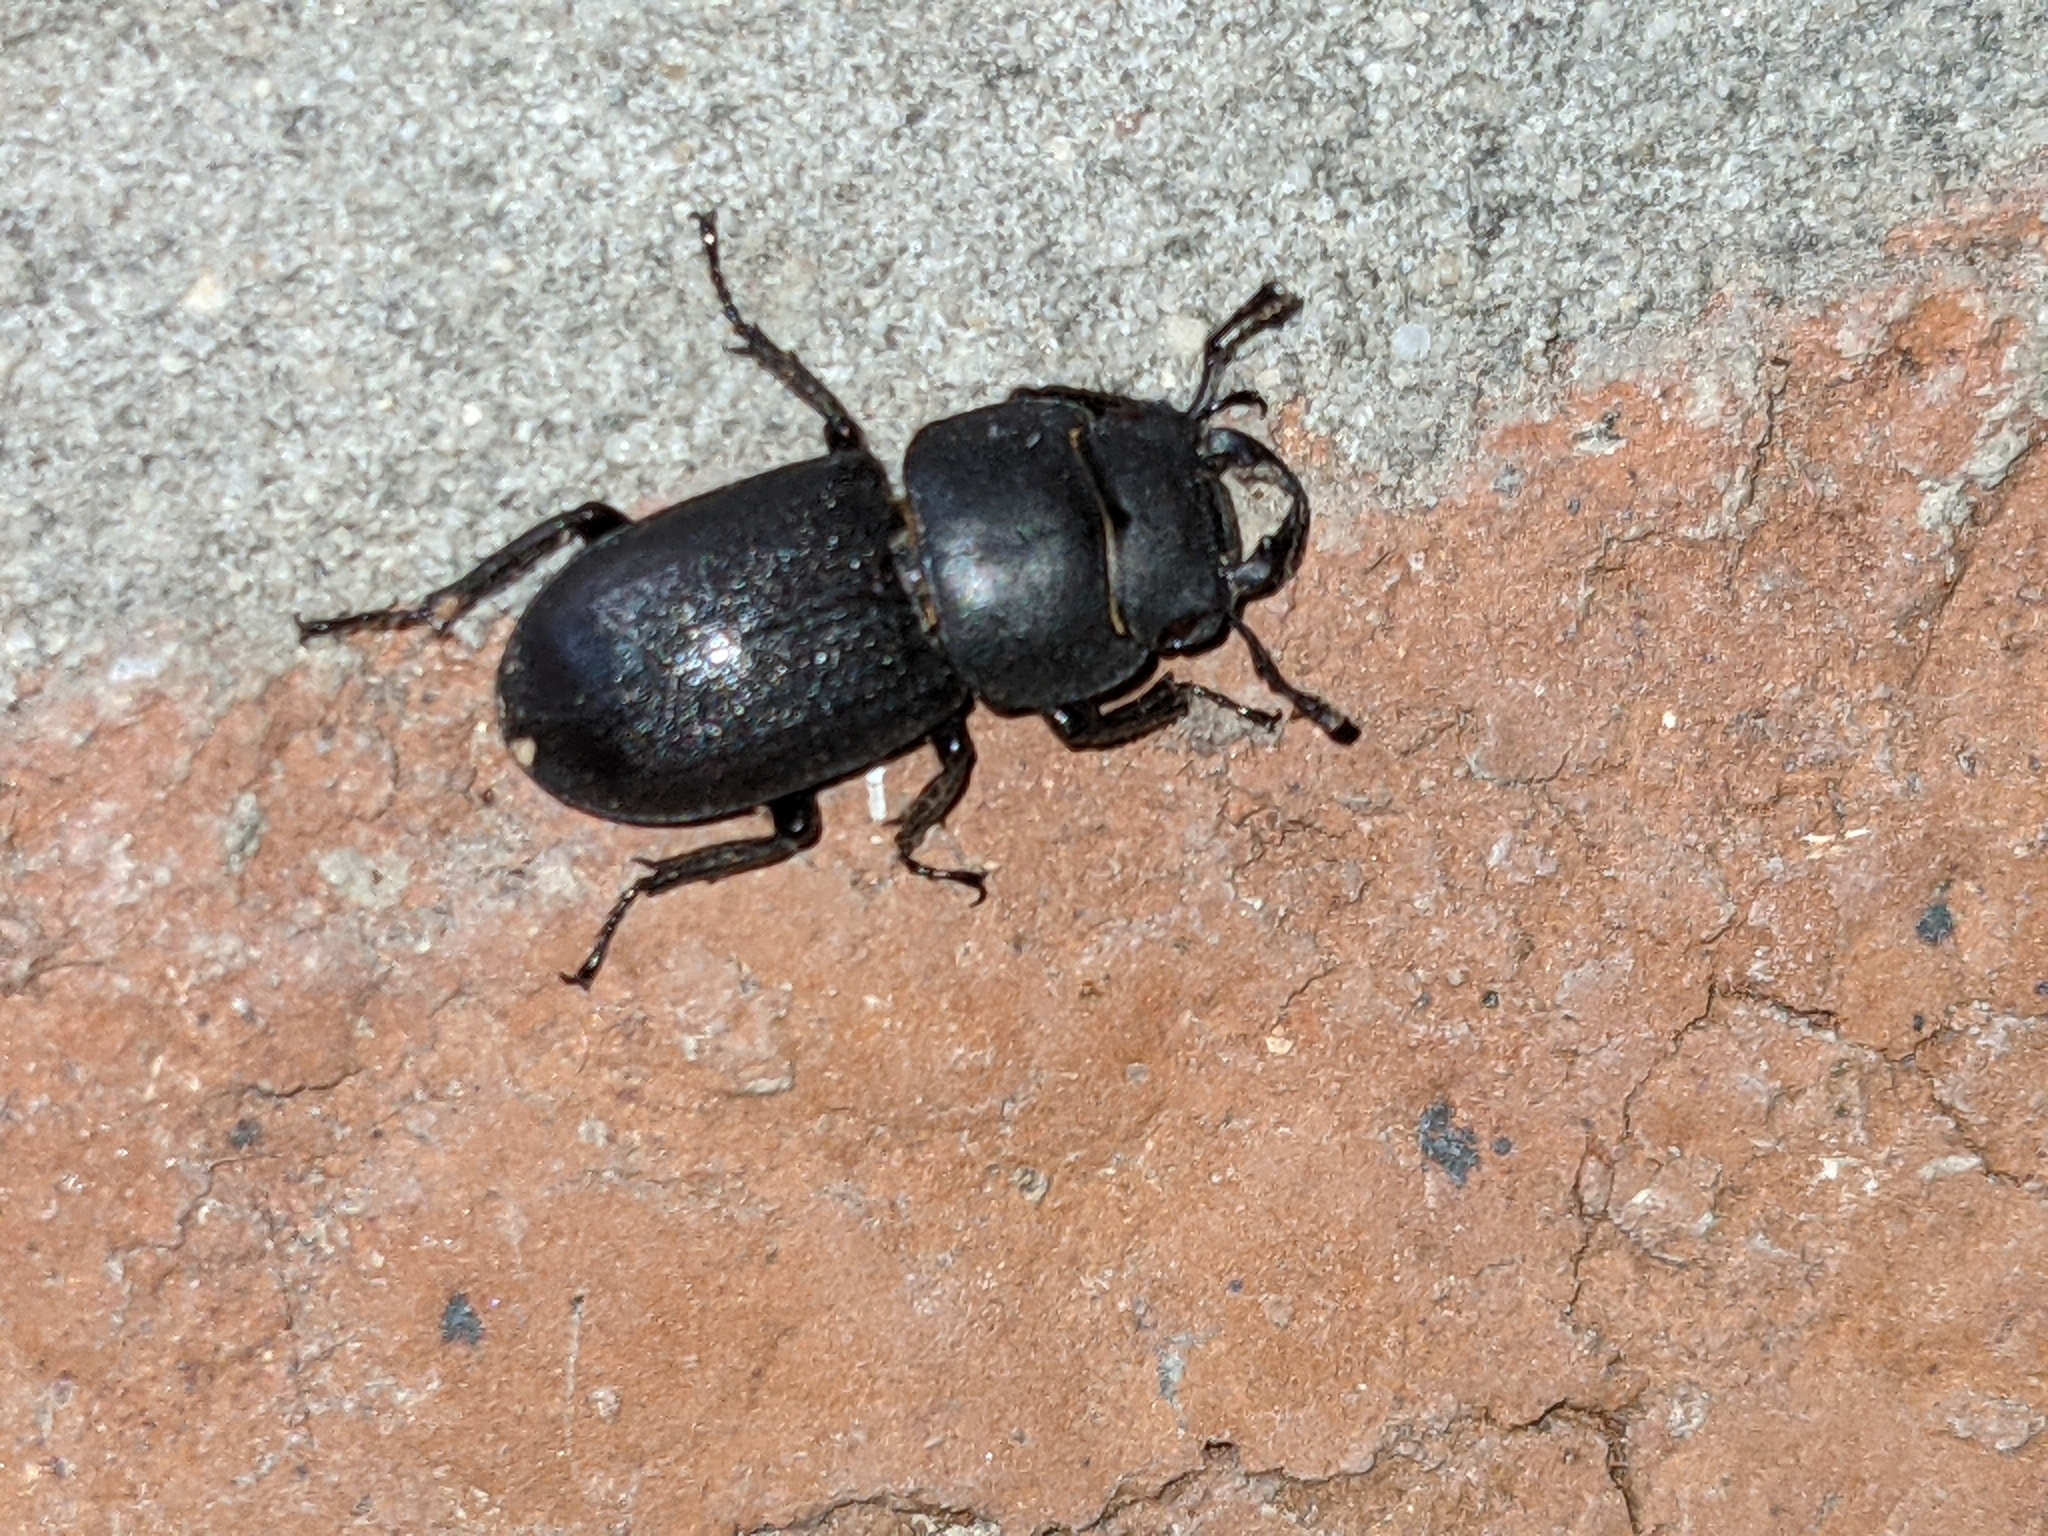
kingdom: Animalia
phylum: Arthropoda
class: Insecta
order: Coleoptera
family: Lucanidae
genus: Dorcus
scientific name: Dorcus parallelipipedus
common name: Lesser stag beetle
